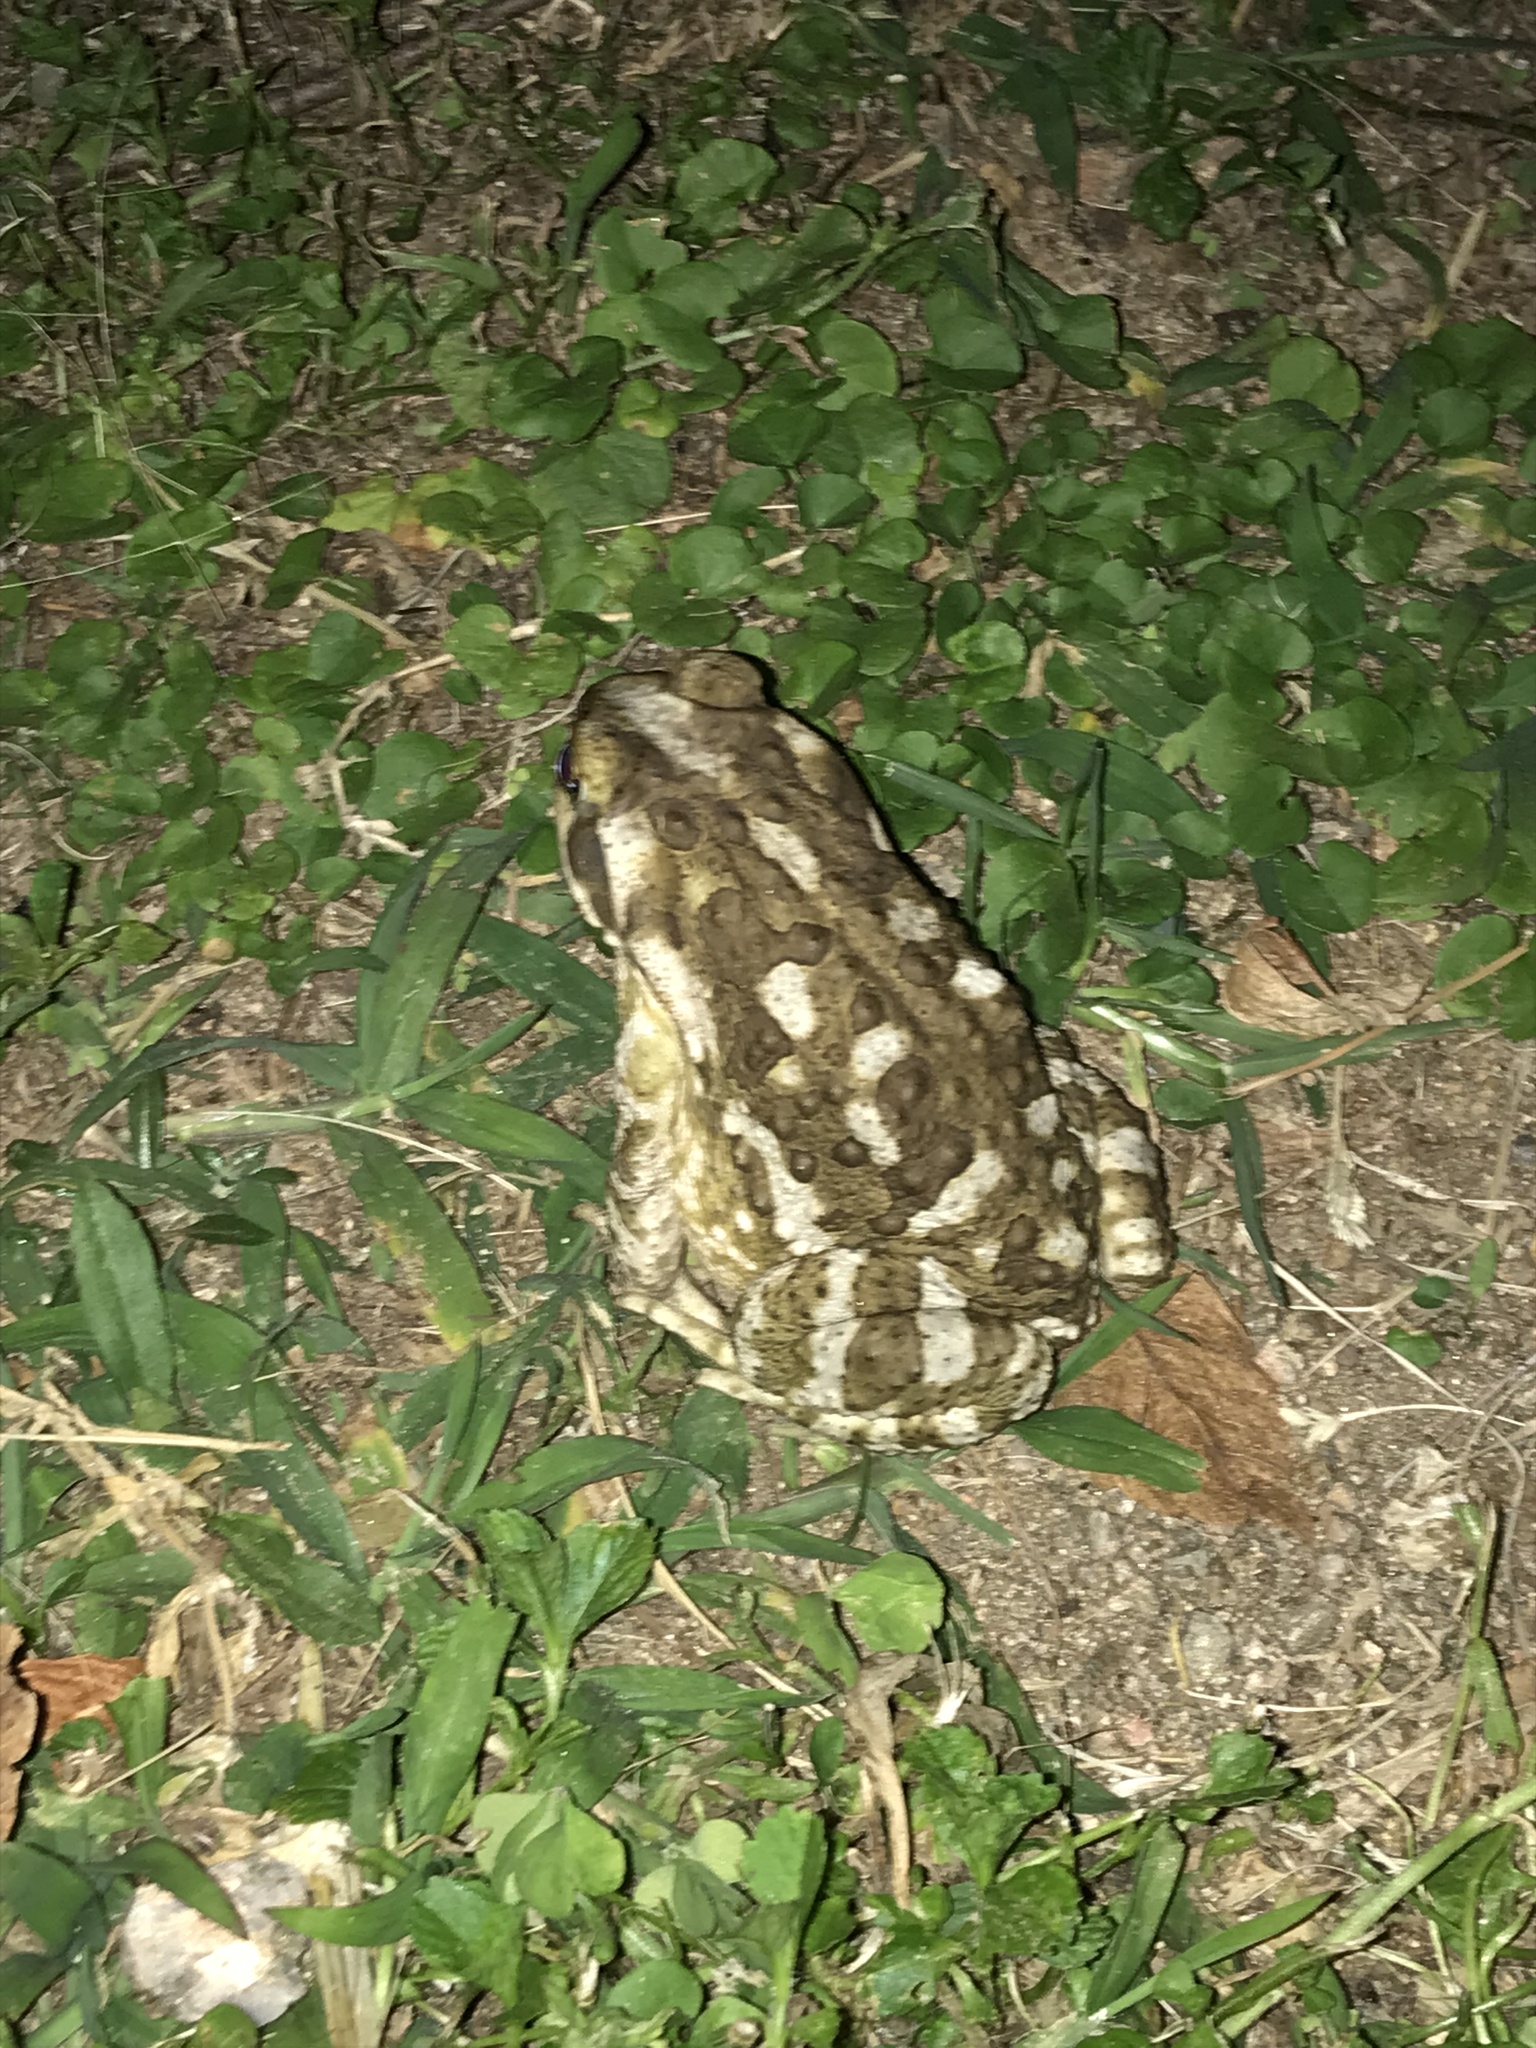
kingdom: Animalia
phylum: Chordata
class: Amphibia
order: Anura
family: Bufonidae
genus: Rhinella
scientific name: Rhinella arenarum
